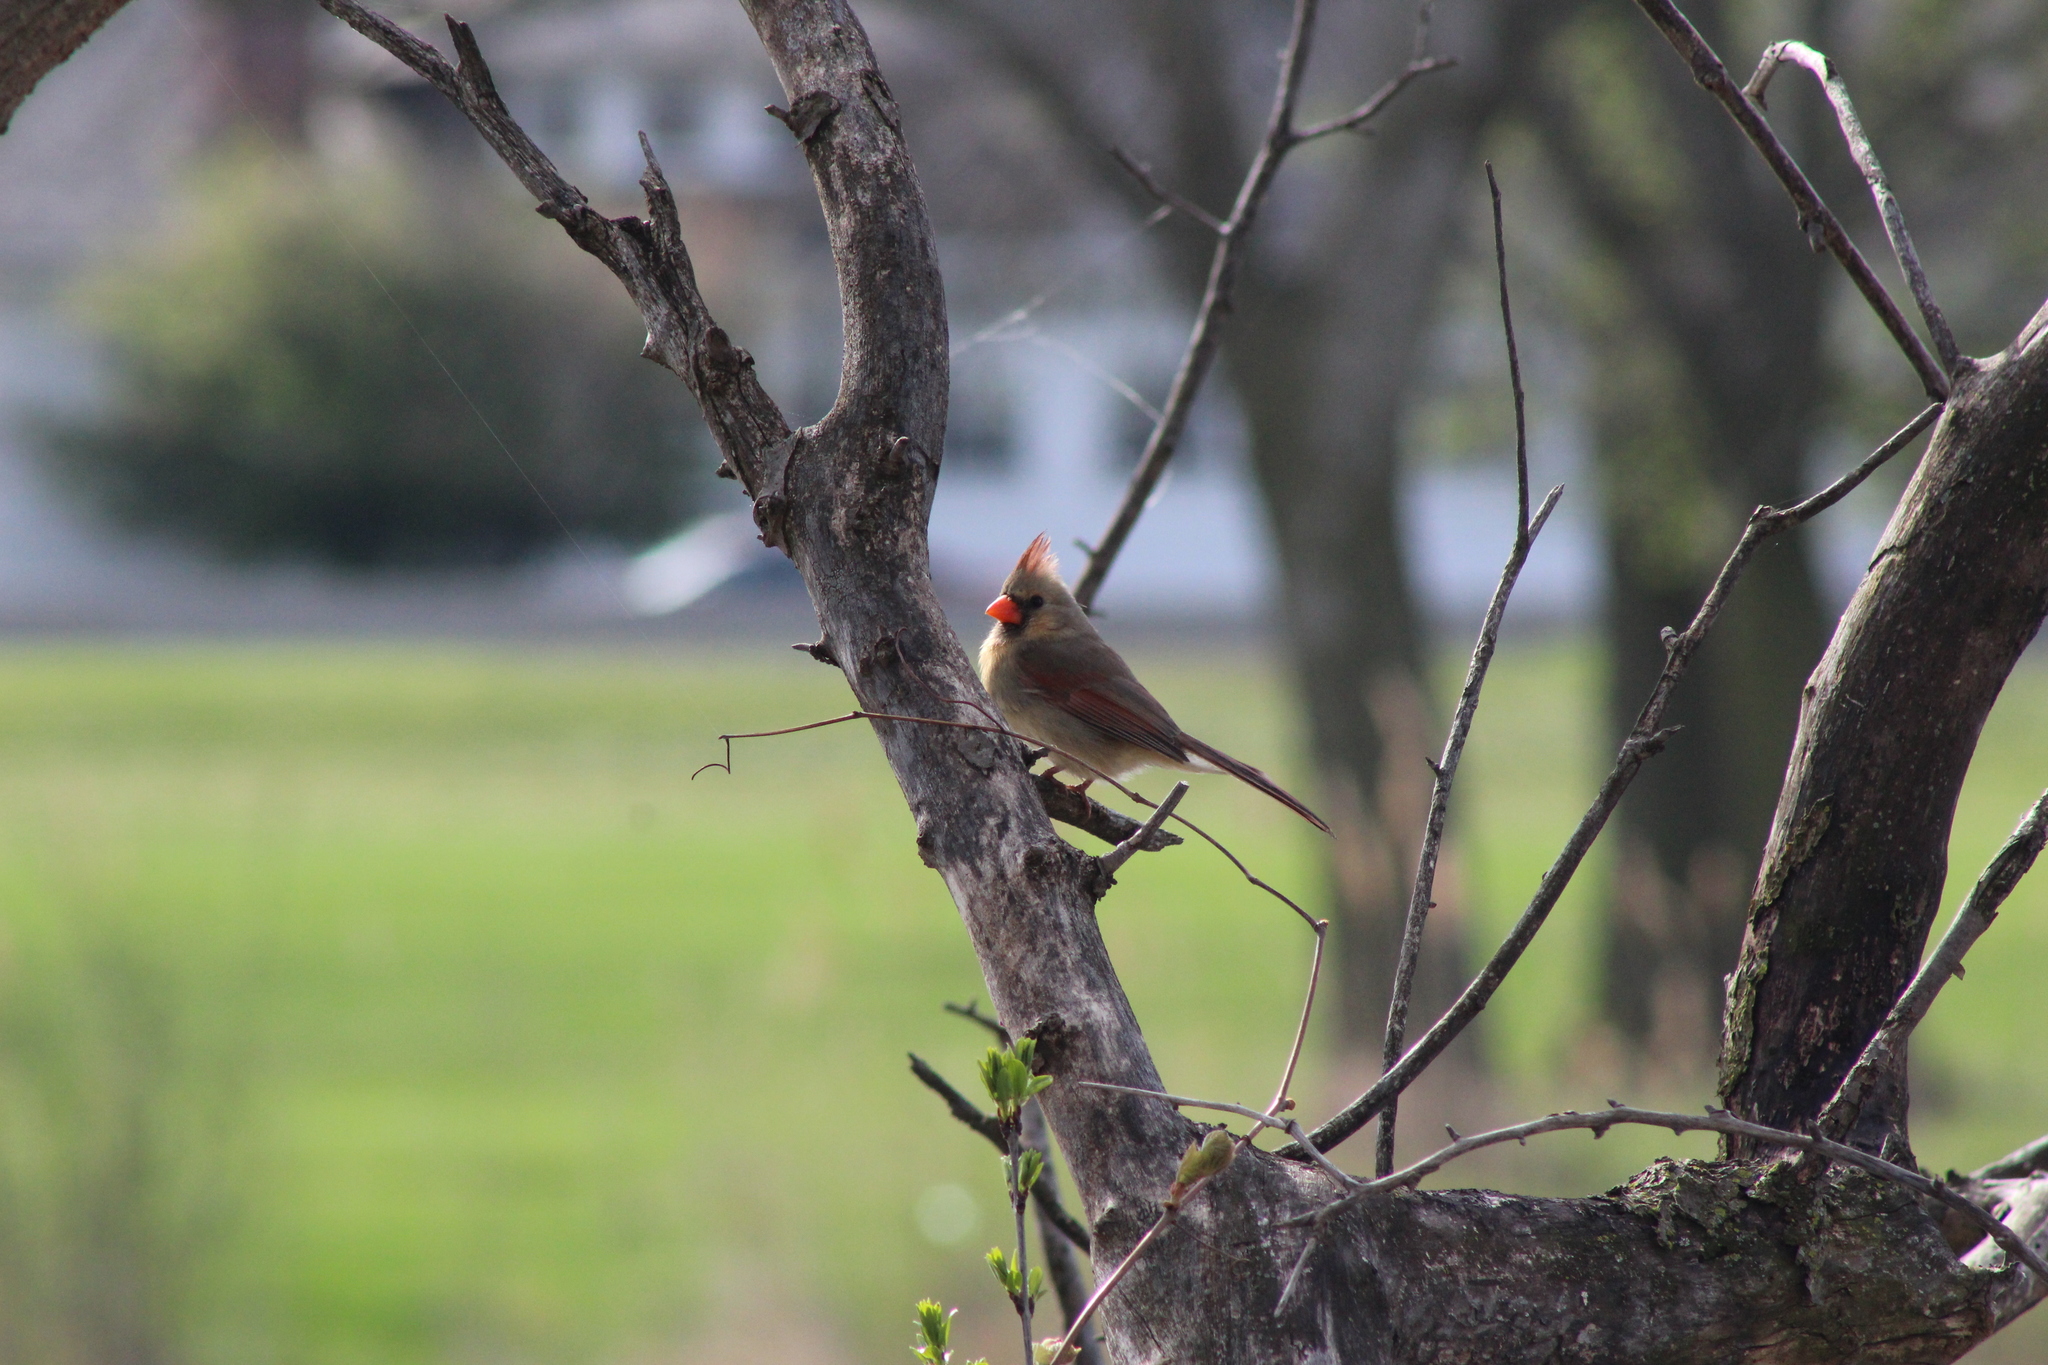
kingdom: Animalia
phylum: Chordata
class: Aves
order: Passeriformes
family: Cardinalidae
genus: Cardinalis
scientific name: Cardinalis cardinalis
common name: Northern cardinal
